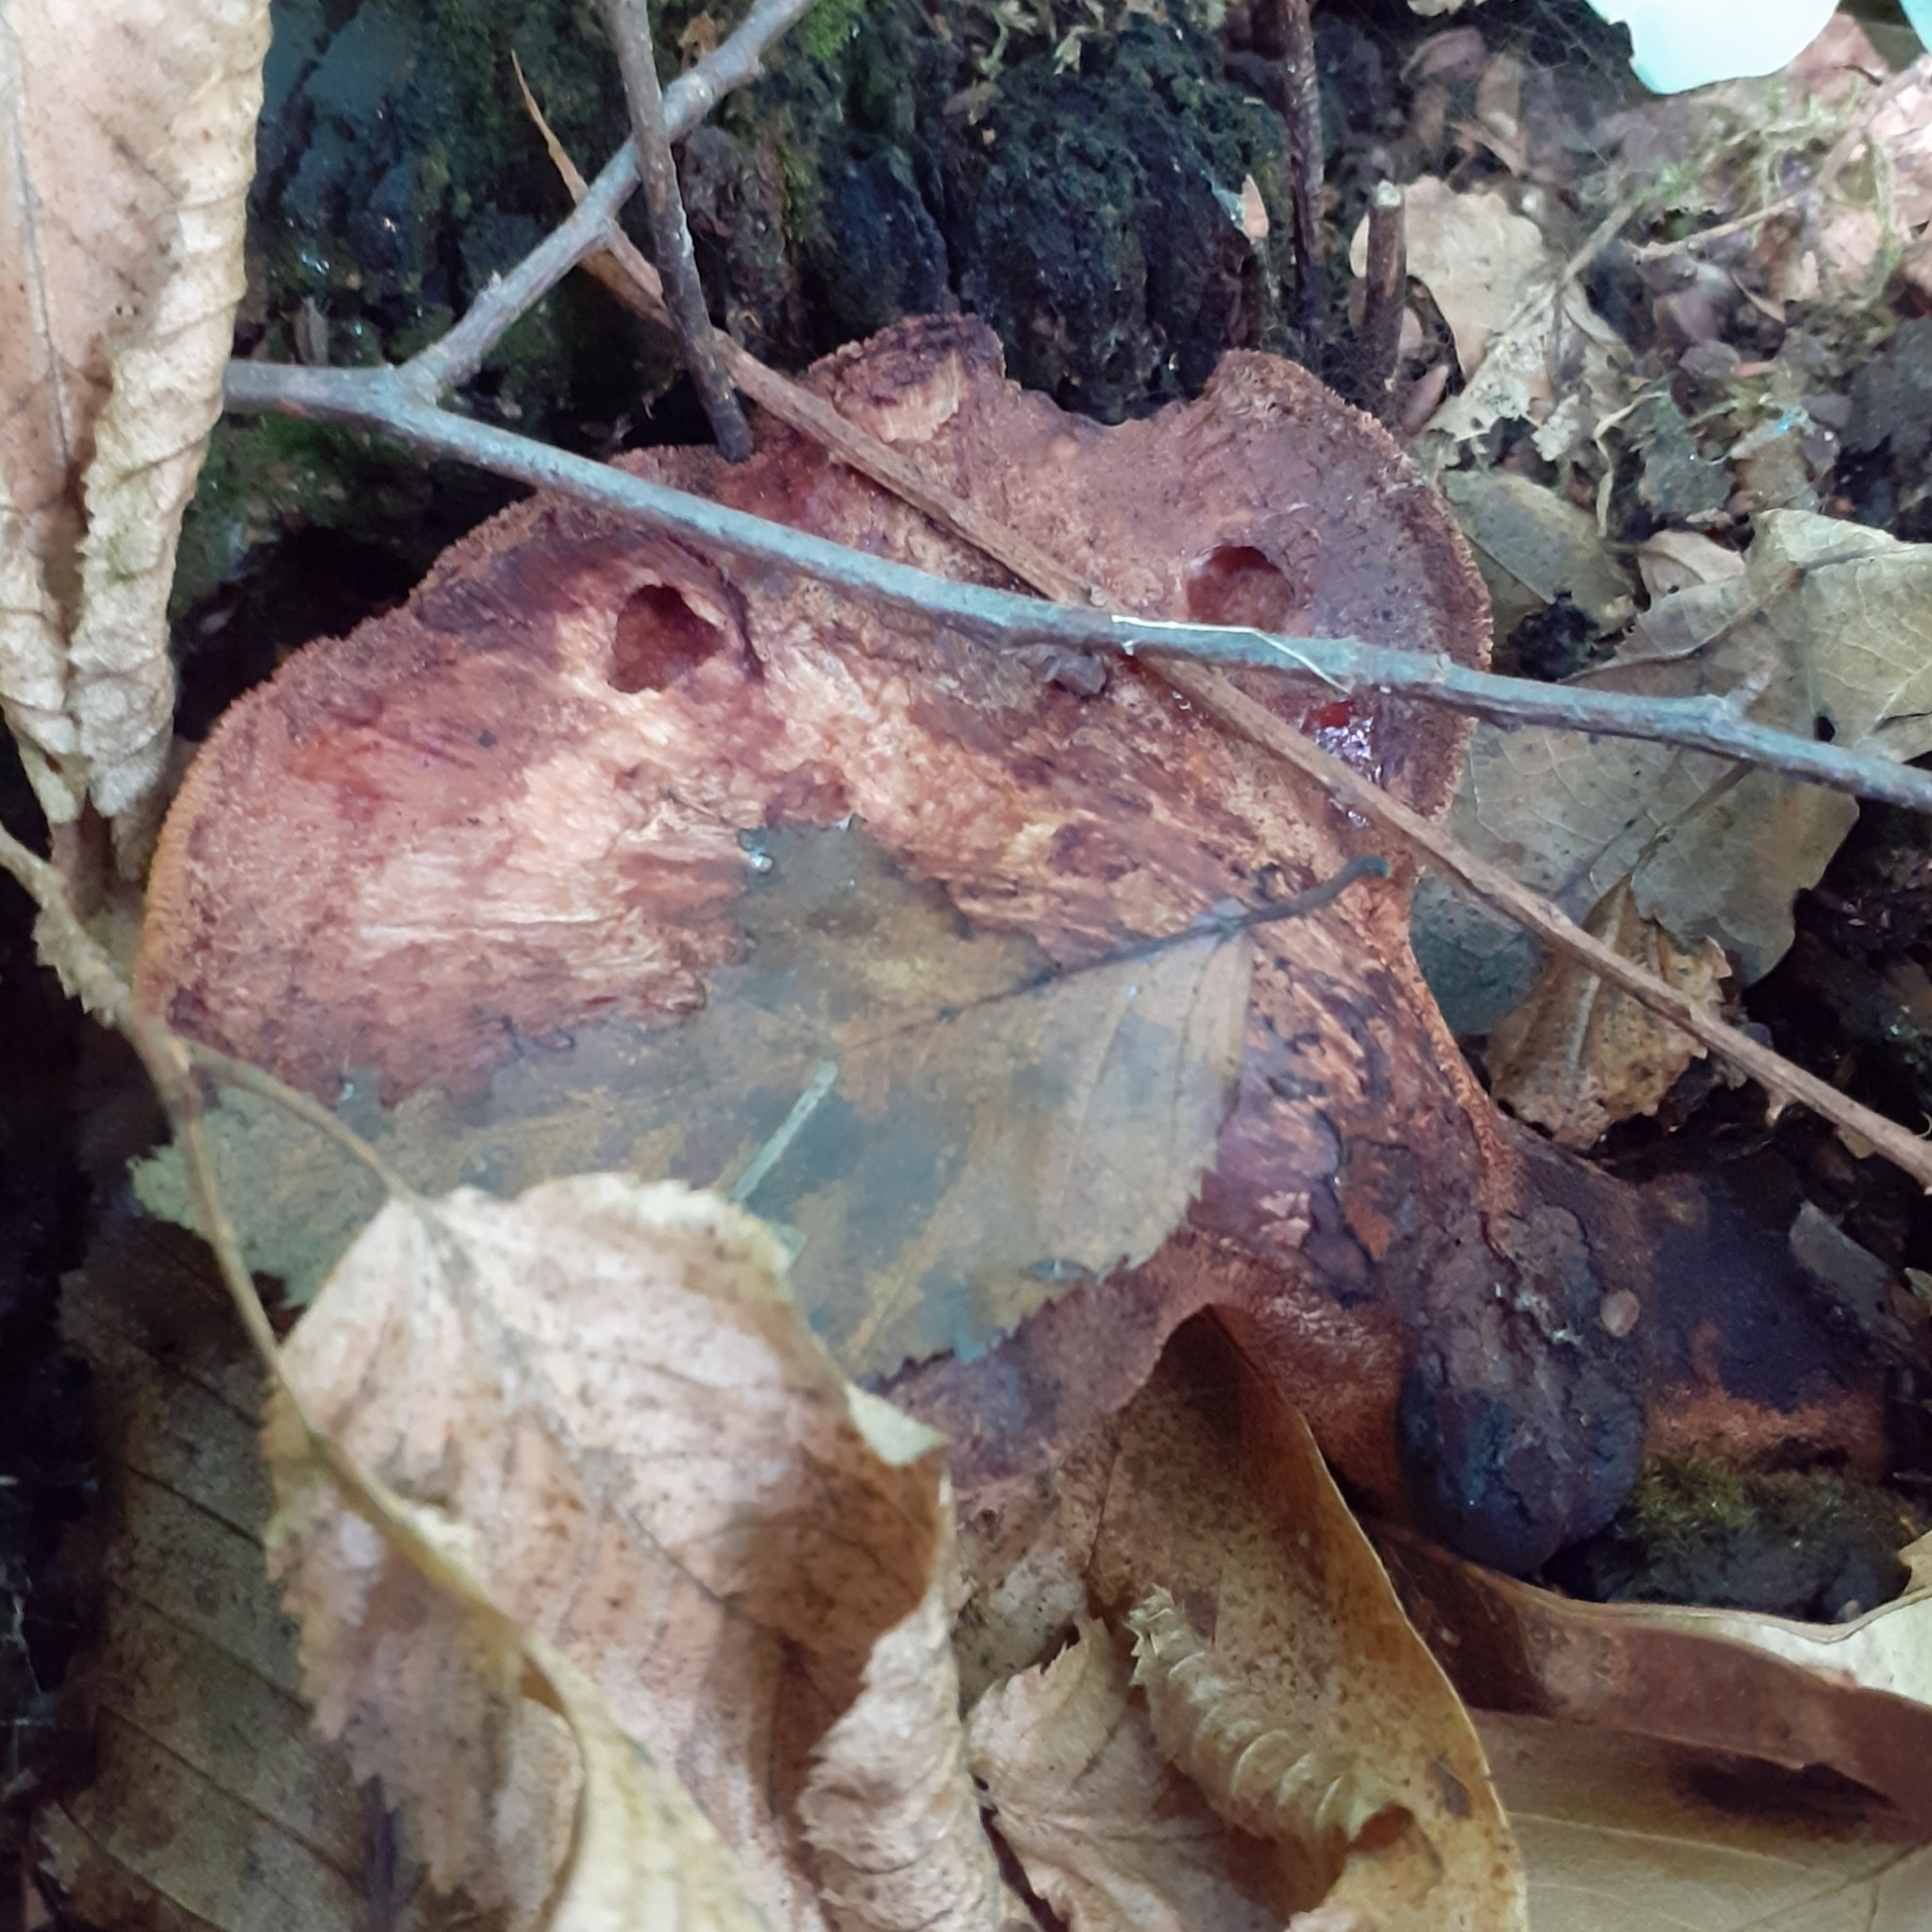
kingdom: Fungi
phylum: Basidiomycota
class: Agaricomycetes
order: Agaricales
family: Fistulinaceae
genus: Fistulina
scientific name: Fistulina hepatica
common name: Beef-steak fungus
